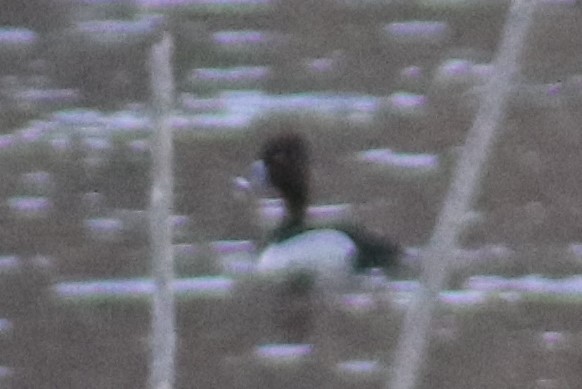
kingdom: Animalia
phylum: Chordata
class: Aves
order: Anseriformes
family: Anatidae
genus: Aythya
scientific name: Aythya collaris
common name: Ring-necked duck
